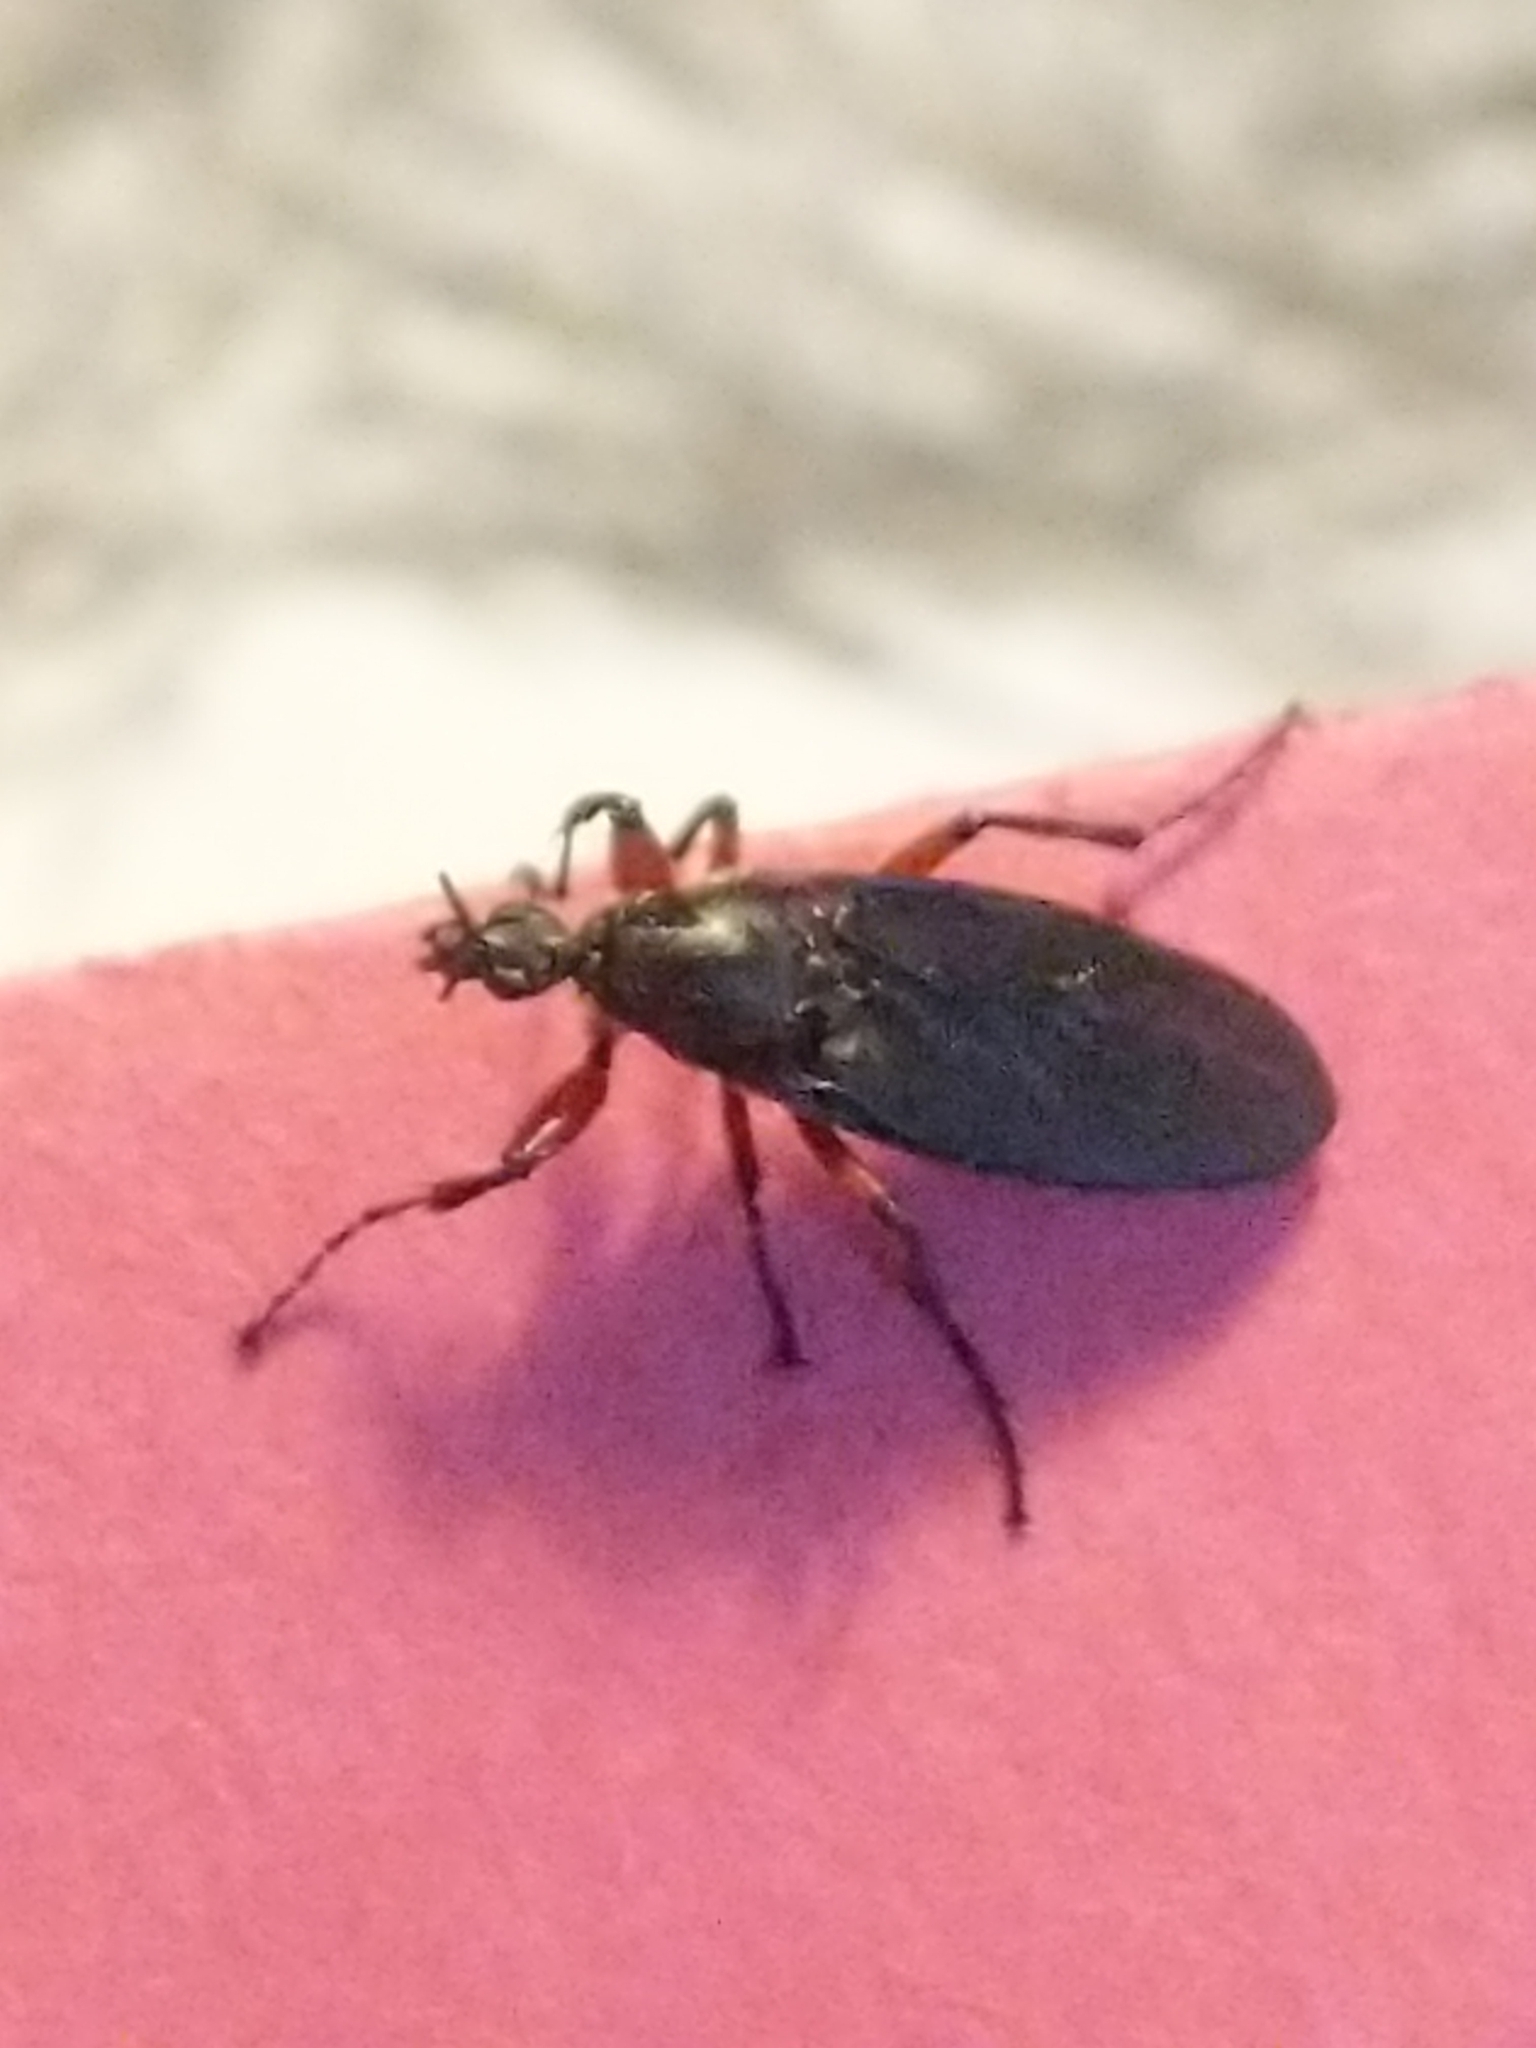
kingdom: Animalia
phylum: Arthropoda
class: Insecta
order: Diptera
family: Bibionidae
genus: Bibio
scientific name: Bibio femoratus
